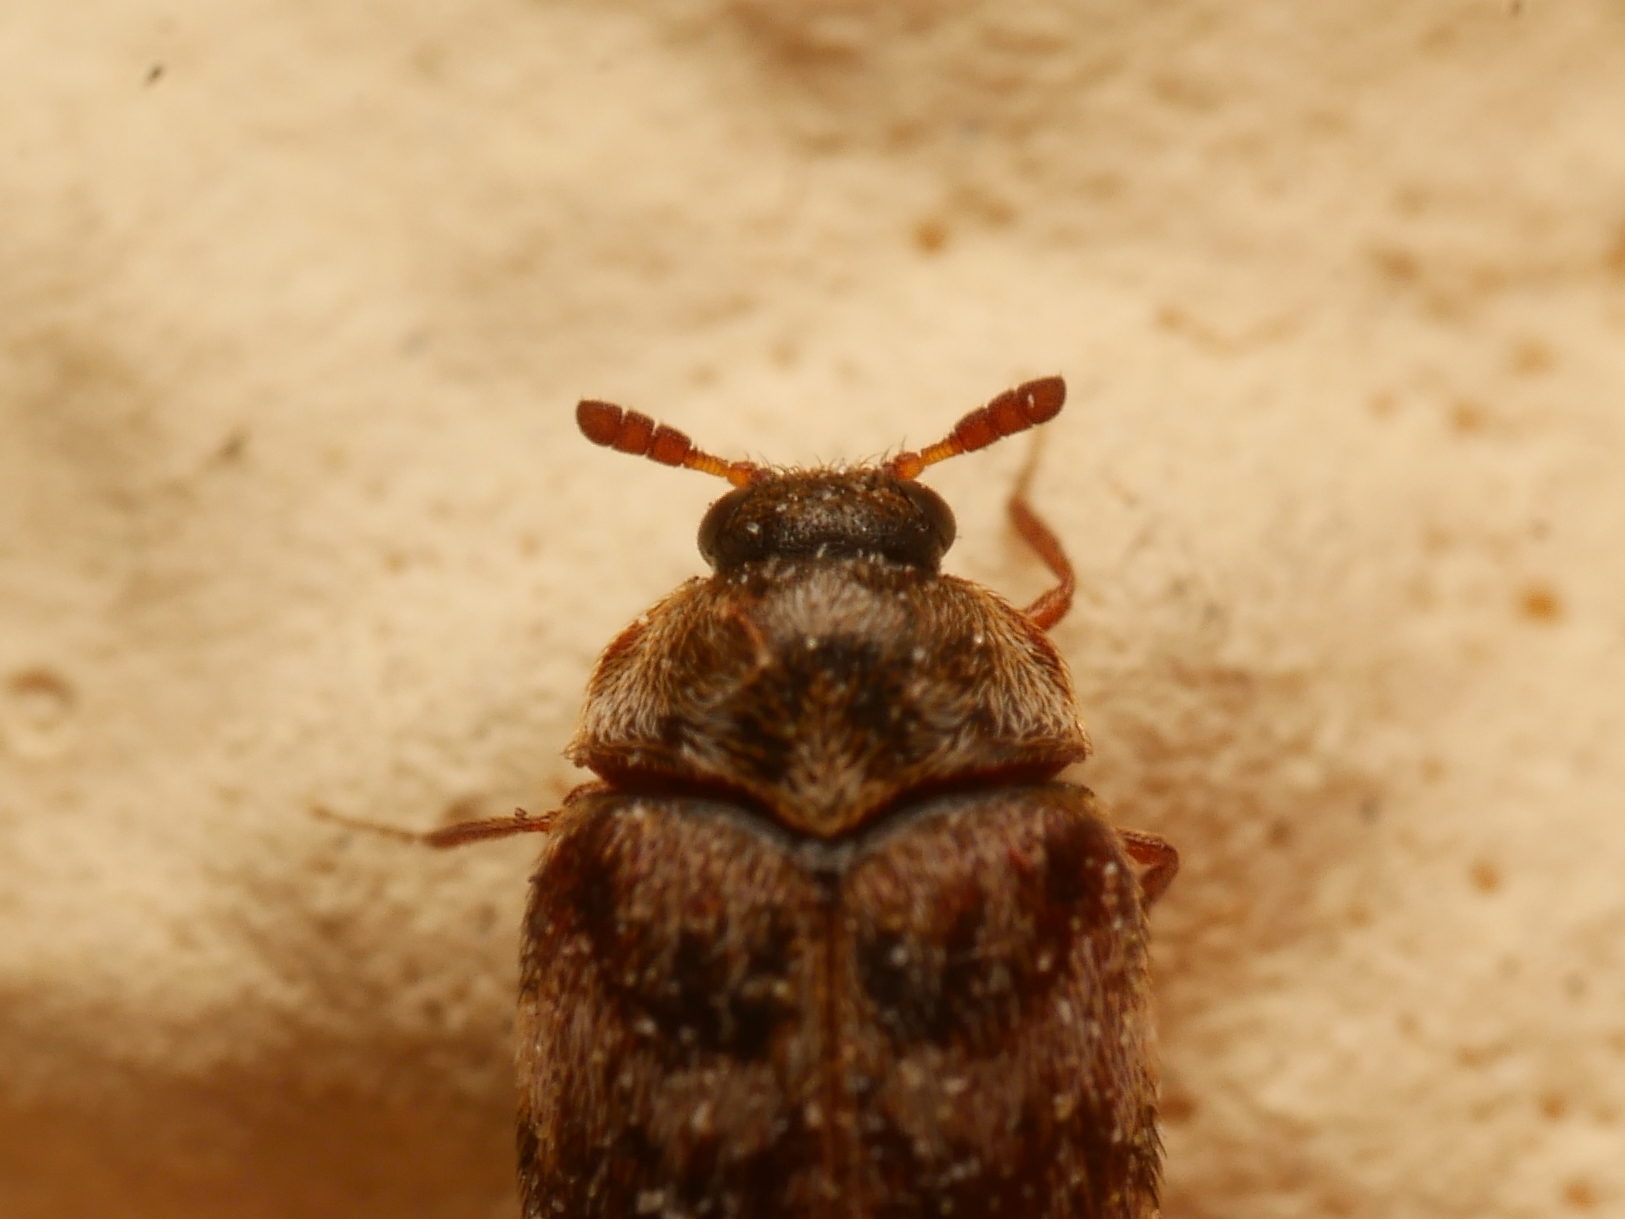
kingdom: Animalia
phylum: Arthropoda
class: Insecta
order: Coleoptera
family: Dermestidae
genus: Anthrenocerus
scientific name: Anthrenocerus australis
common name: Australian carpet beetle
